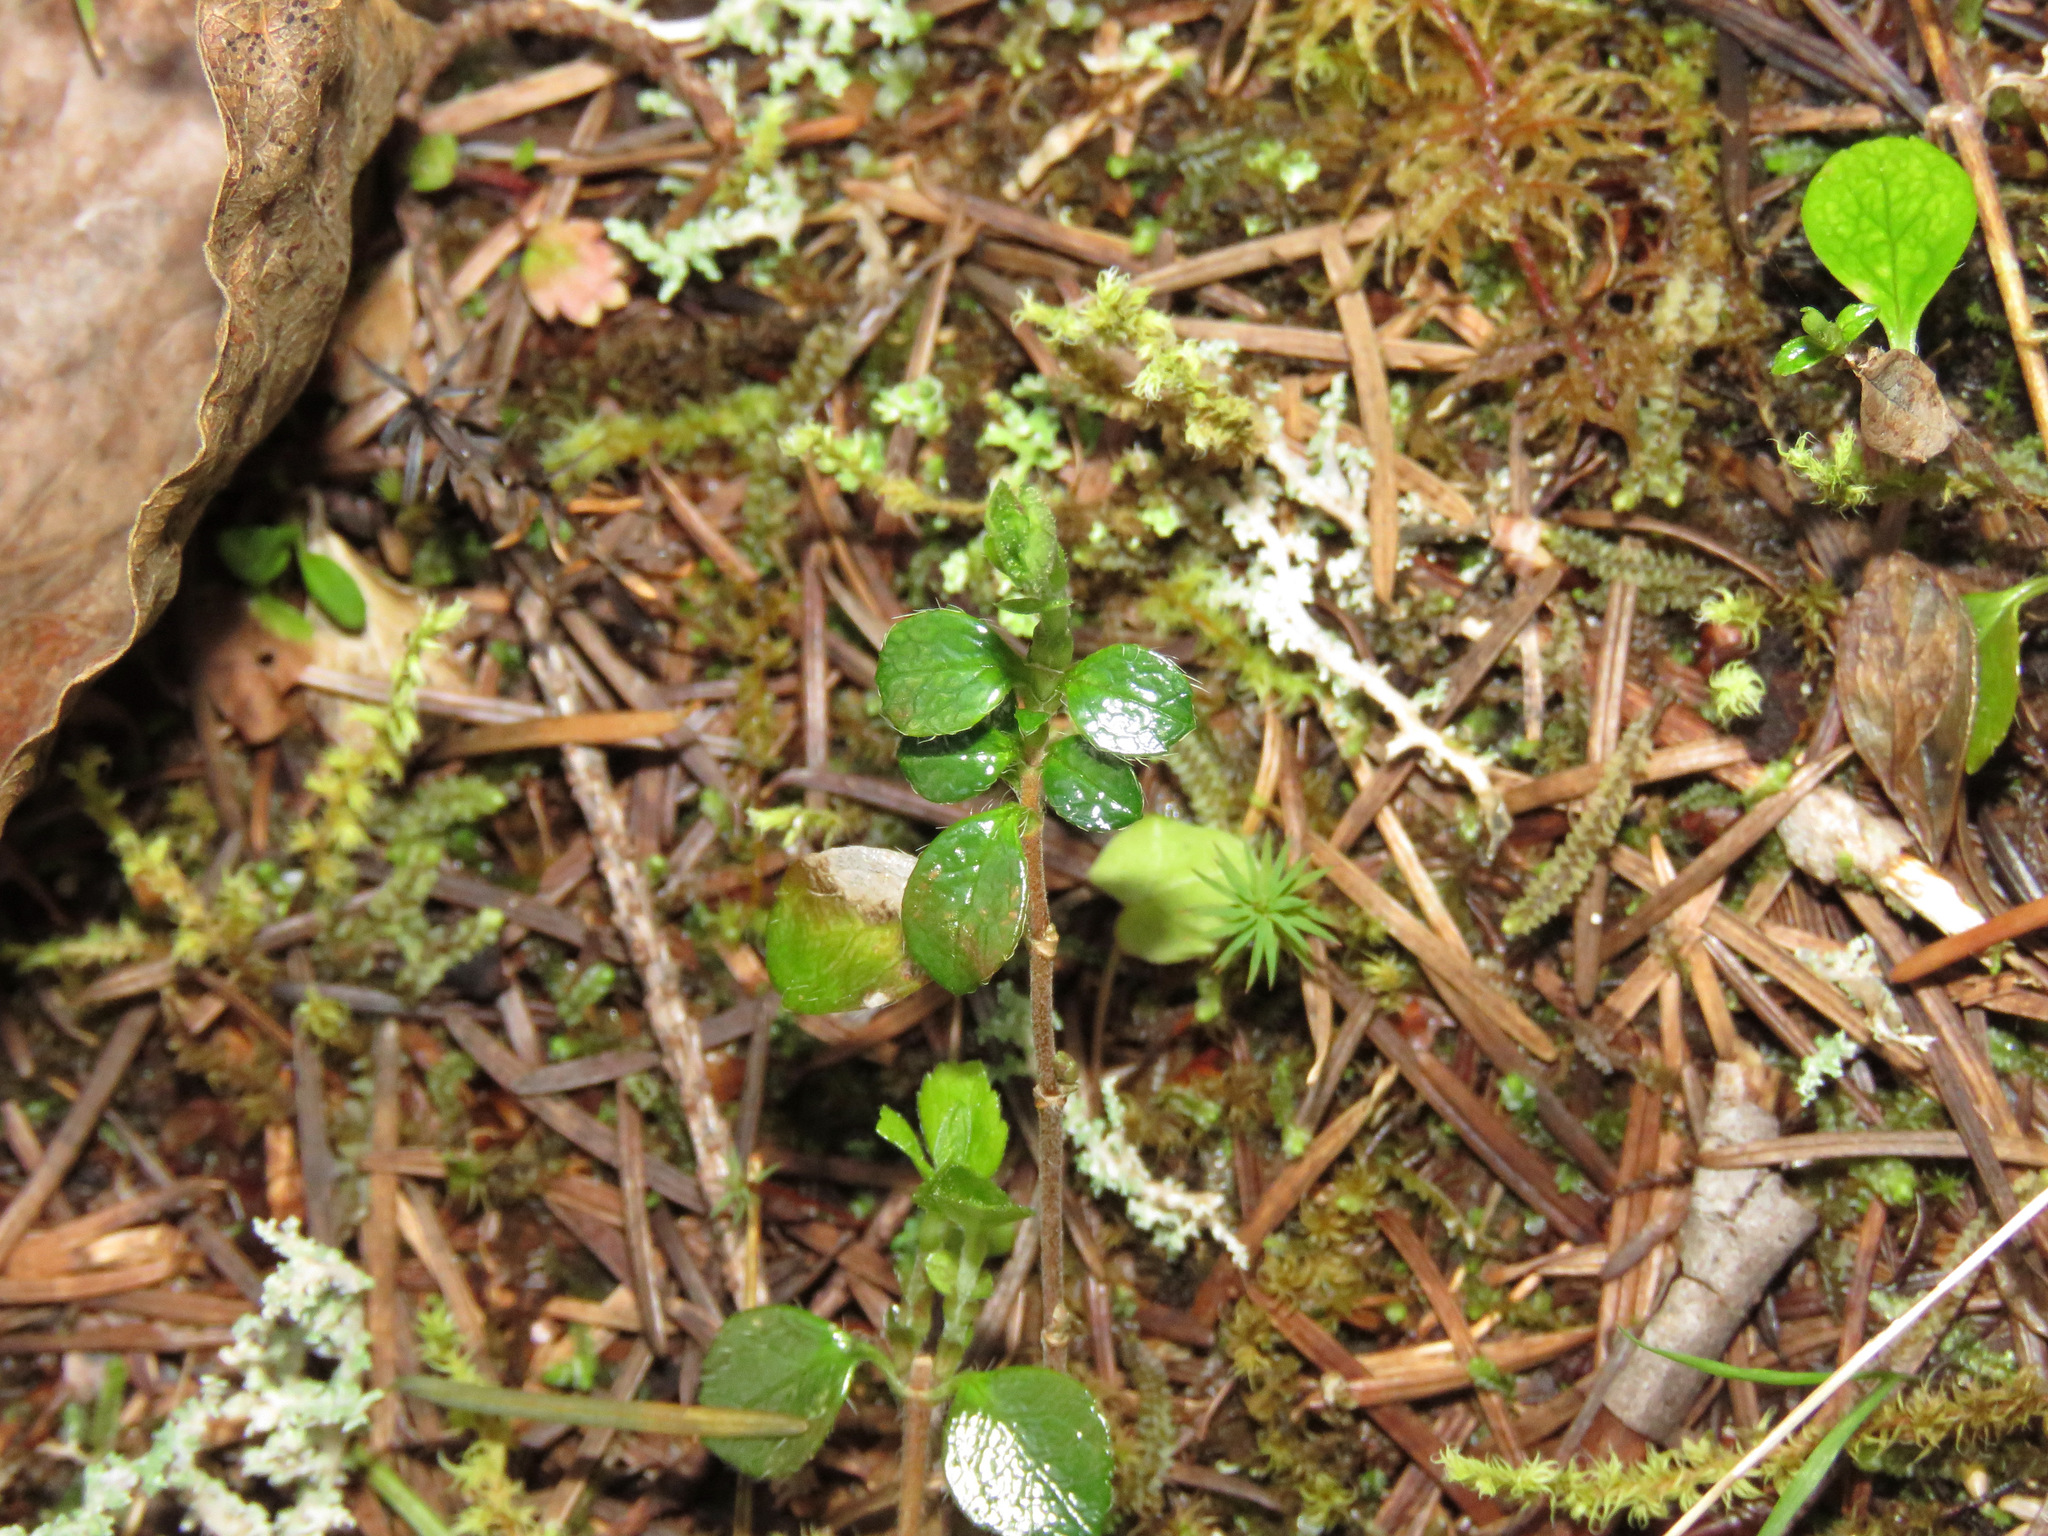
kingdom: Plantae
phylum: Tracheophyta
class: Magnoliopsida
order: Dipsacales
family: Caprifoliaceae
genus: Linnaea
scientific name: Linnaea borealis
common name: Twinflower
